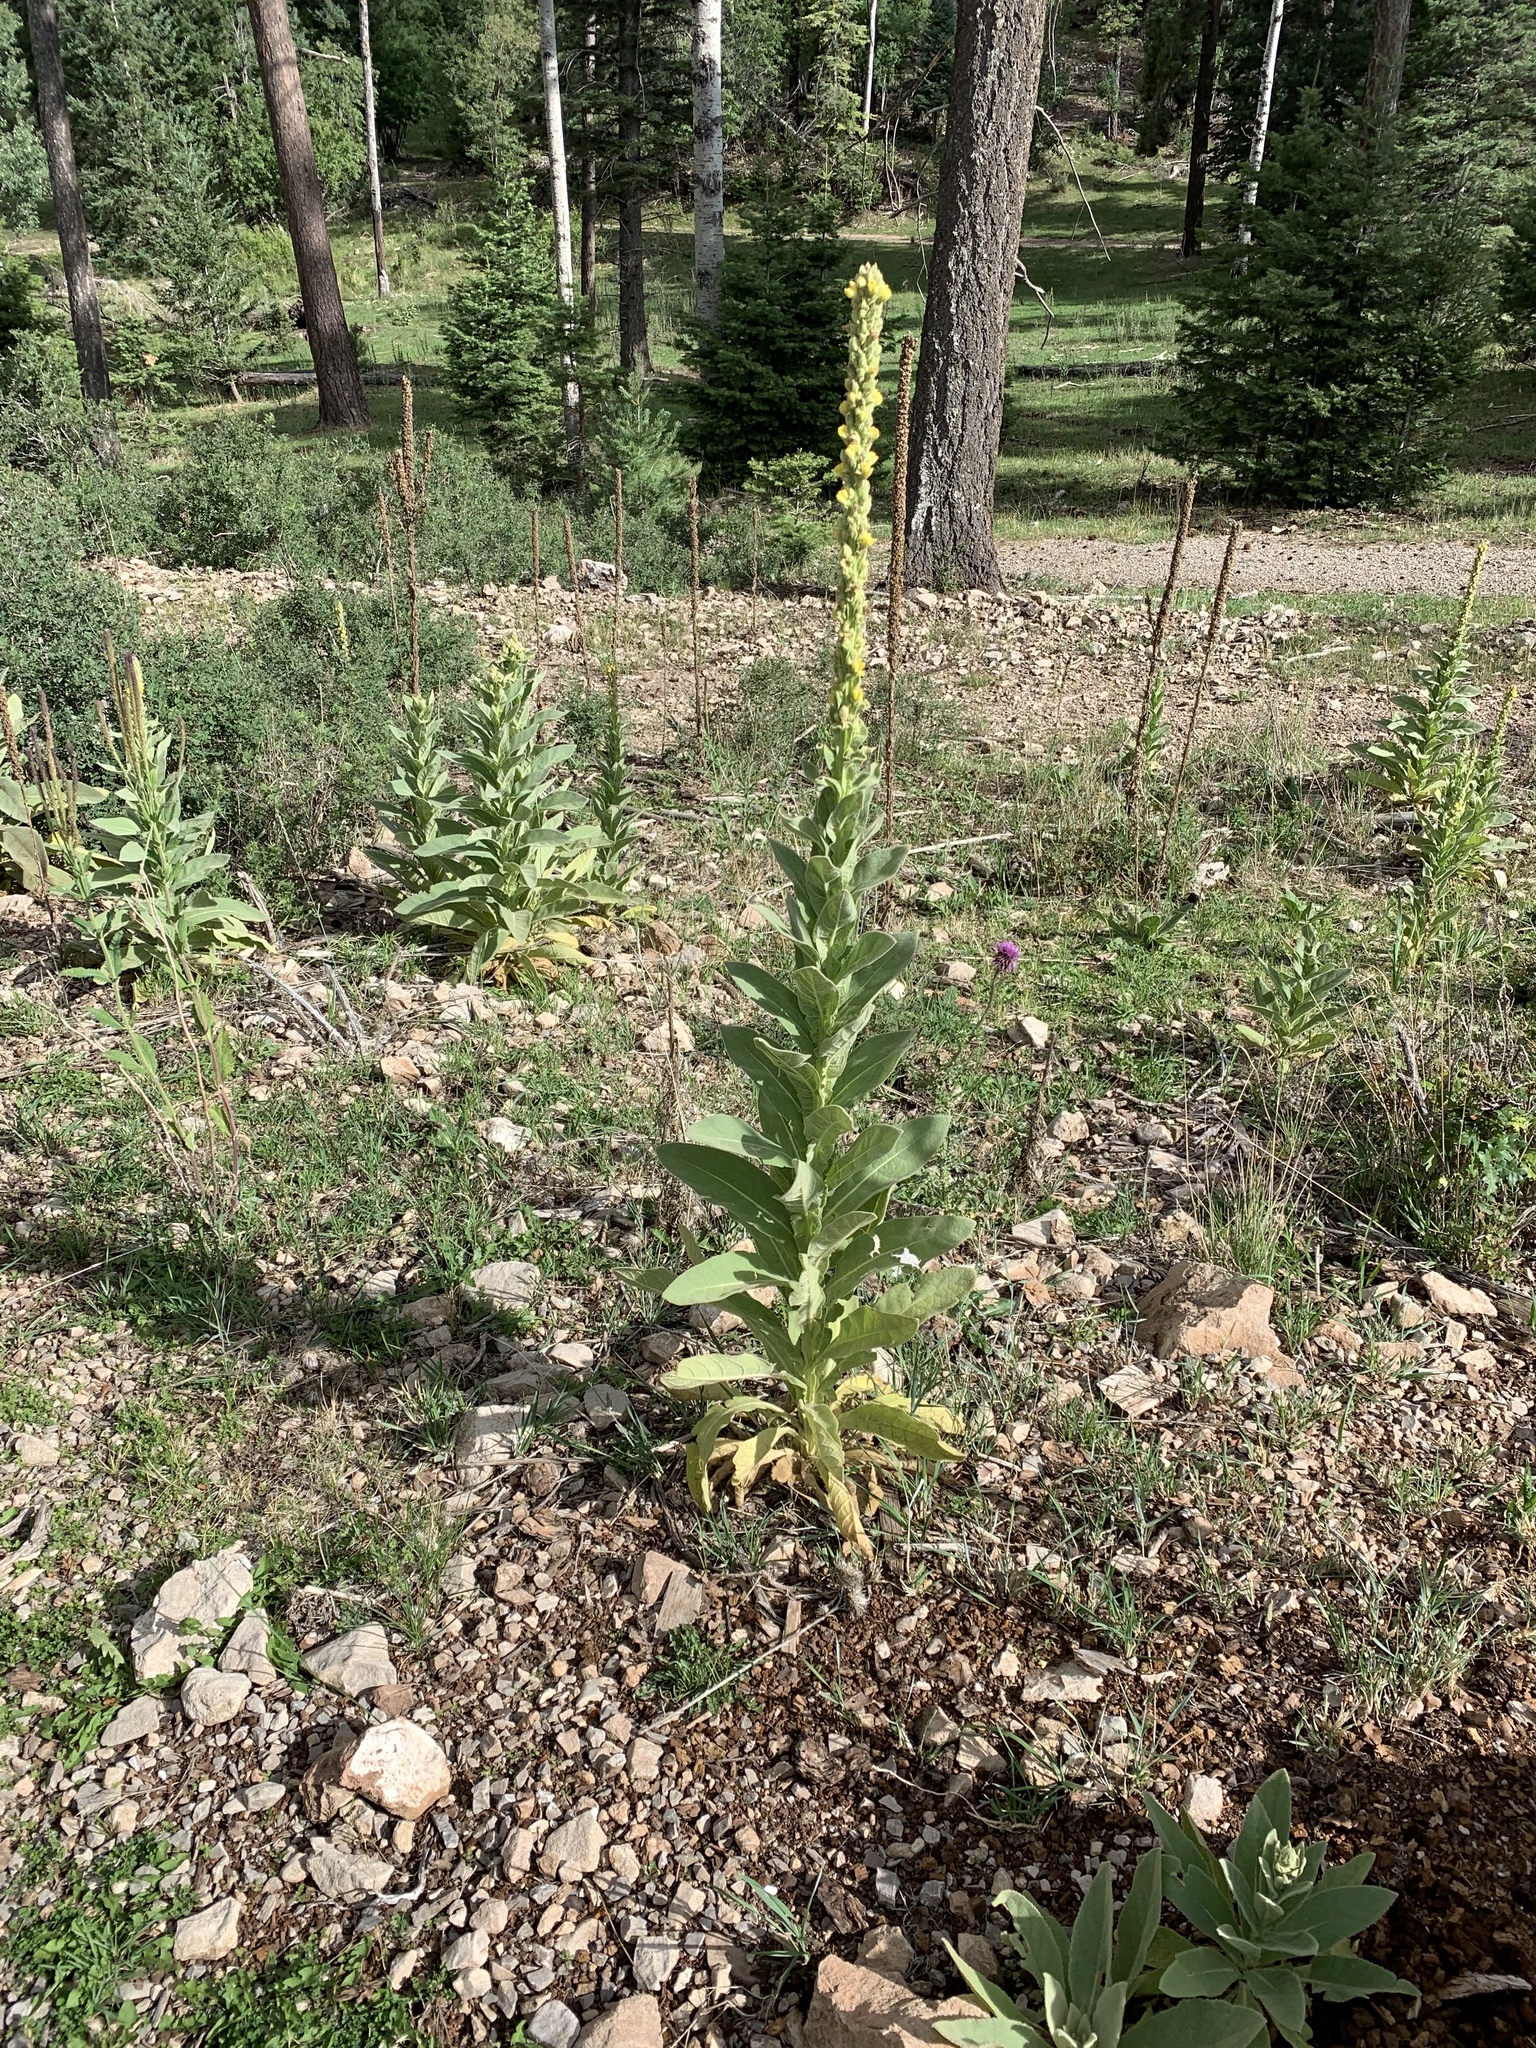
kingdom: Plantae
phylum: Tracheophyta
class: Magnoliopsida
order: Lamiales
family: Scrophulariaceae
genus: Verbascum
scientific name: Verbascum thapsus
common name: Common mullein
